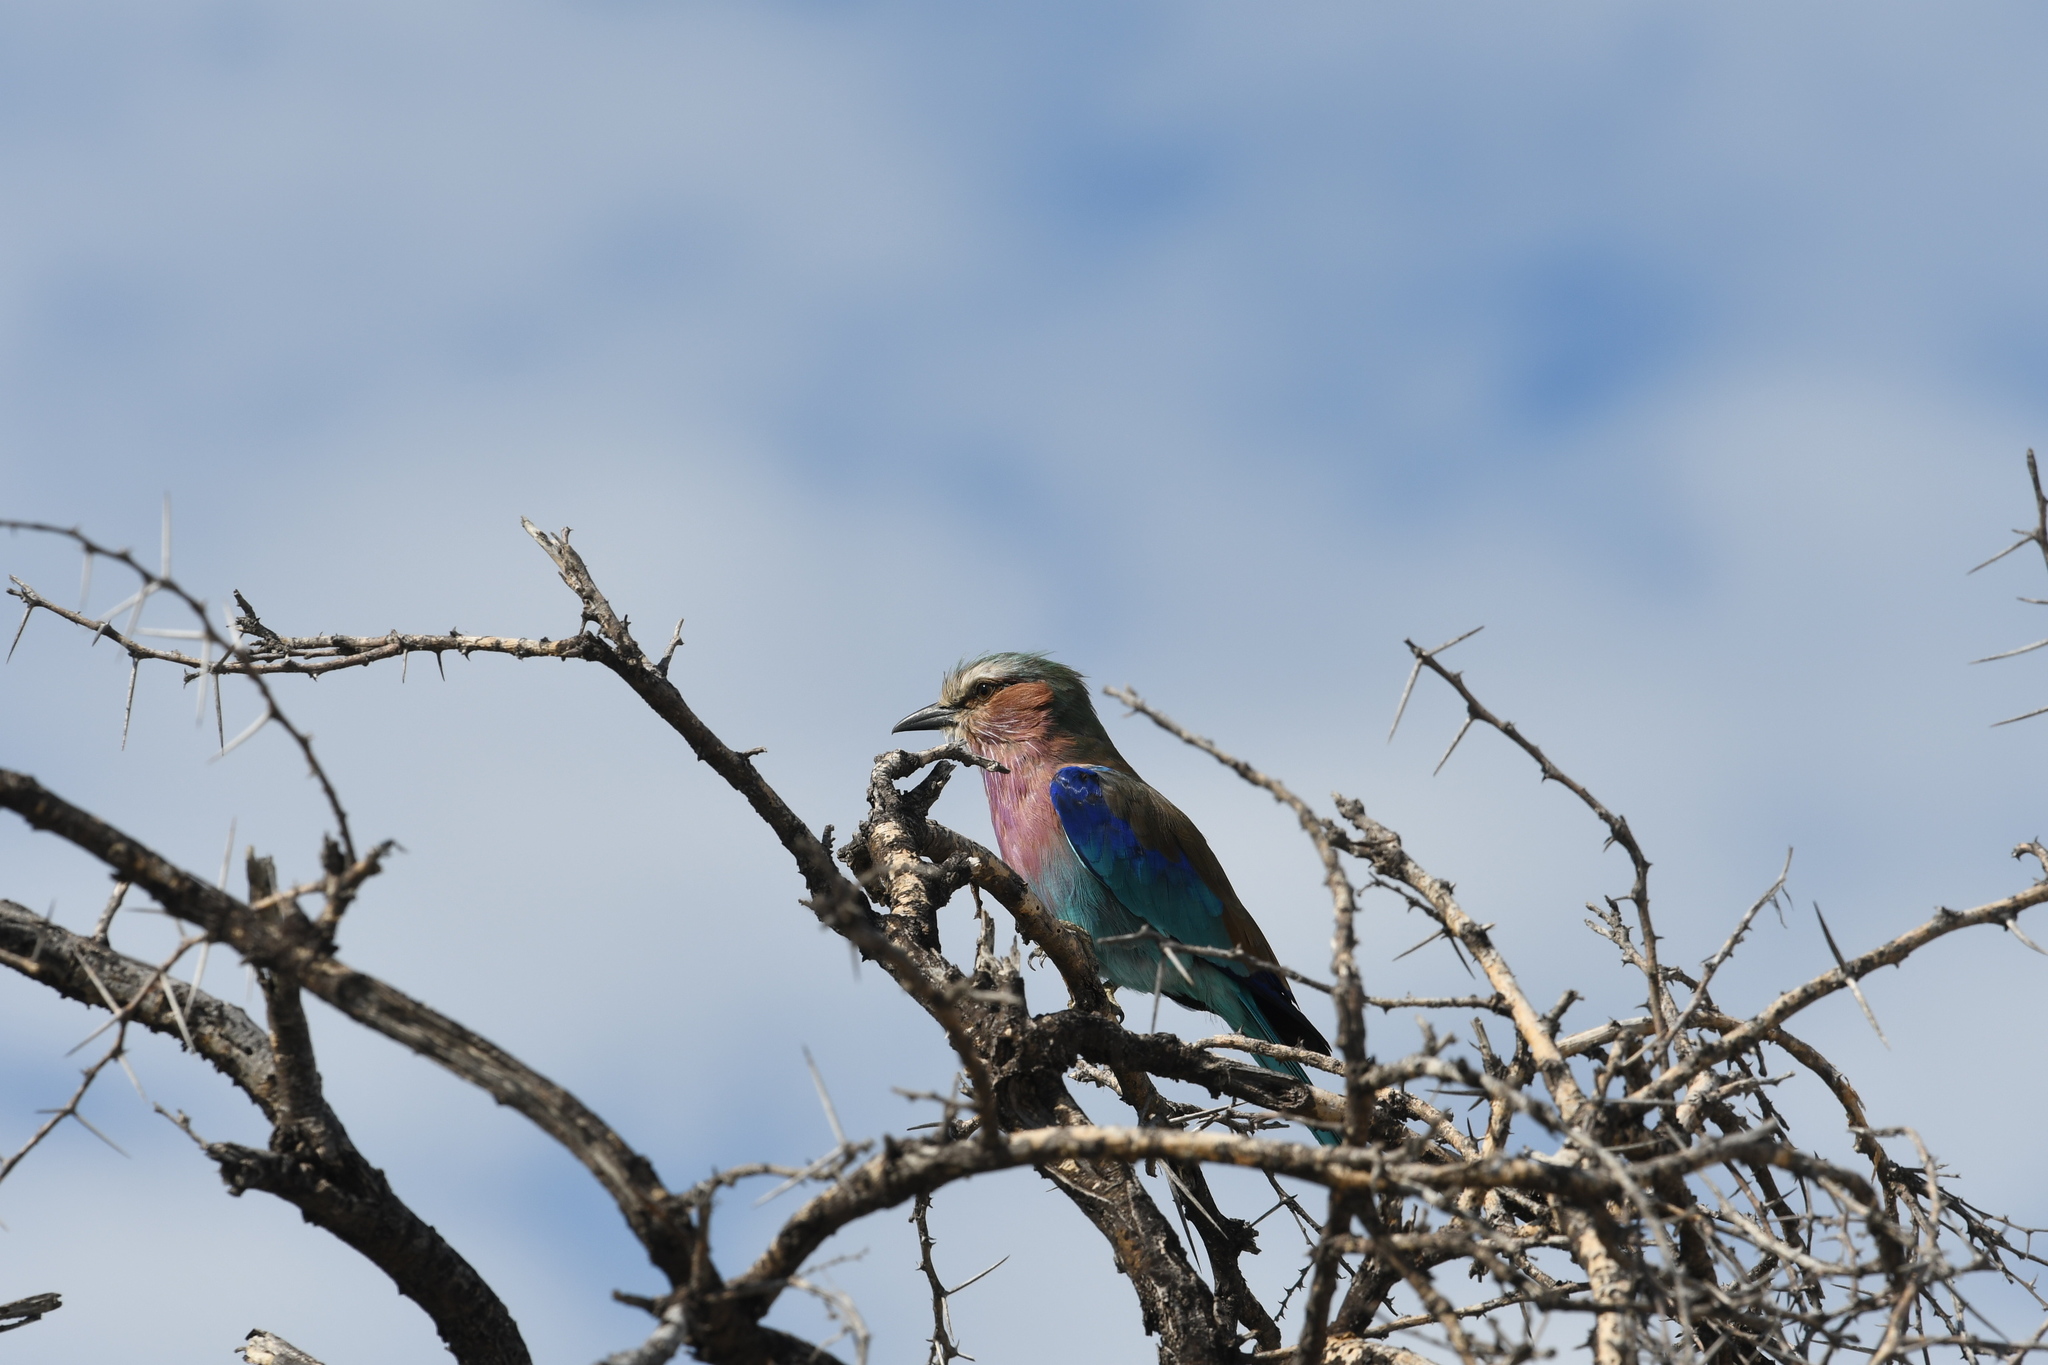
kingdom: Animalia
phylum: Chordata
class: Aves
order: Coraciiformes
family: Coraciidae
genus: Coracias
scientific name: Coracias caudatus
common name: Lilac-breasted roller
